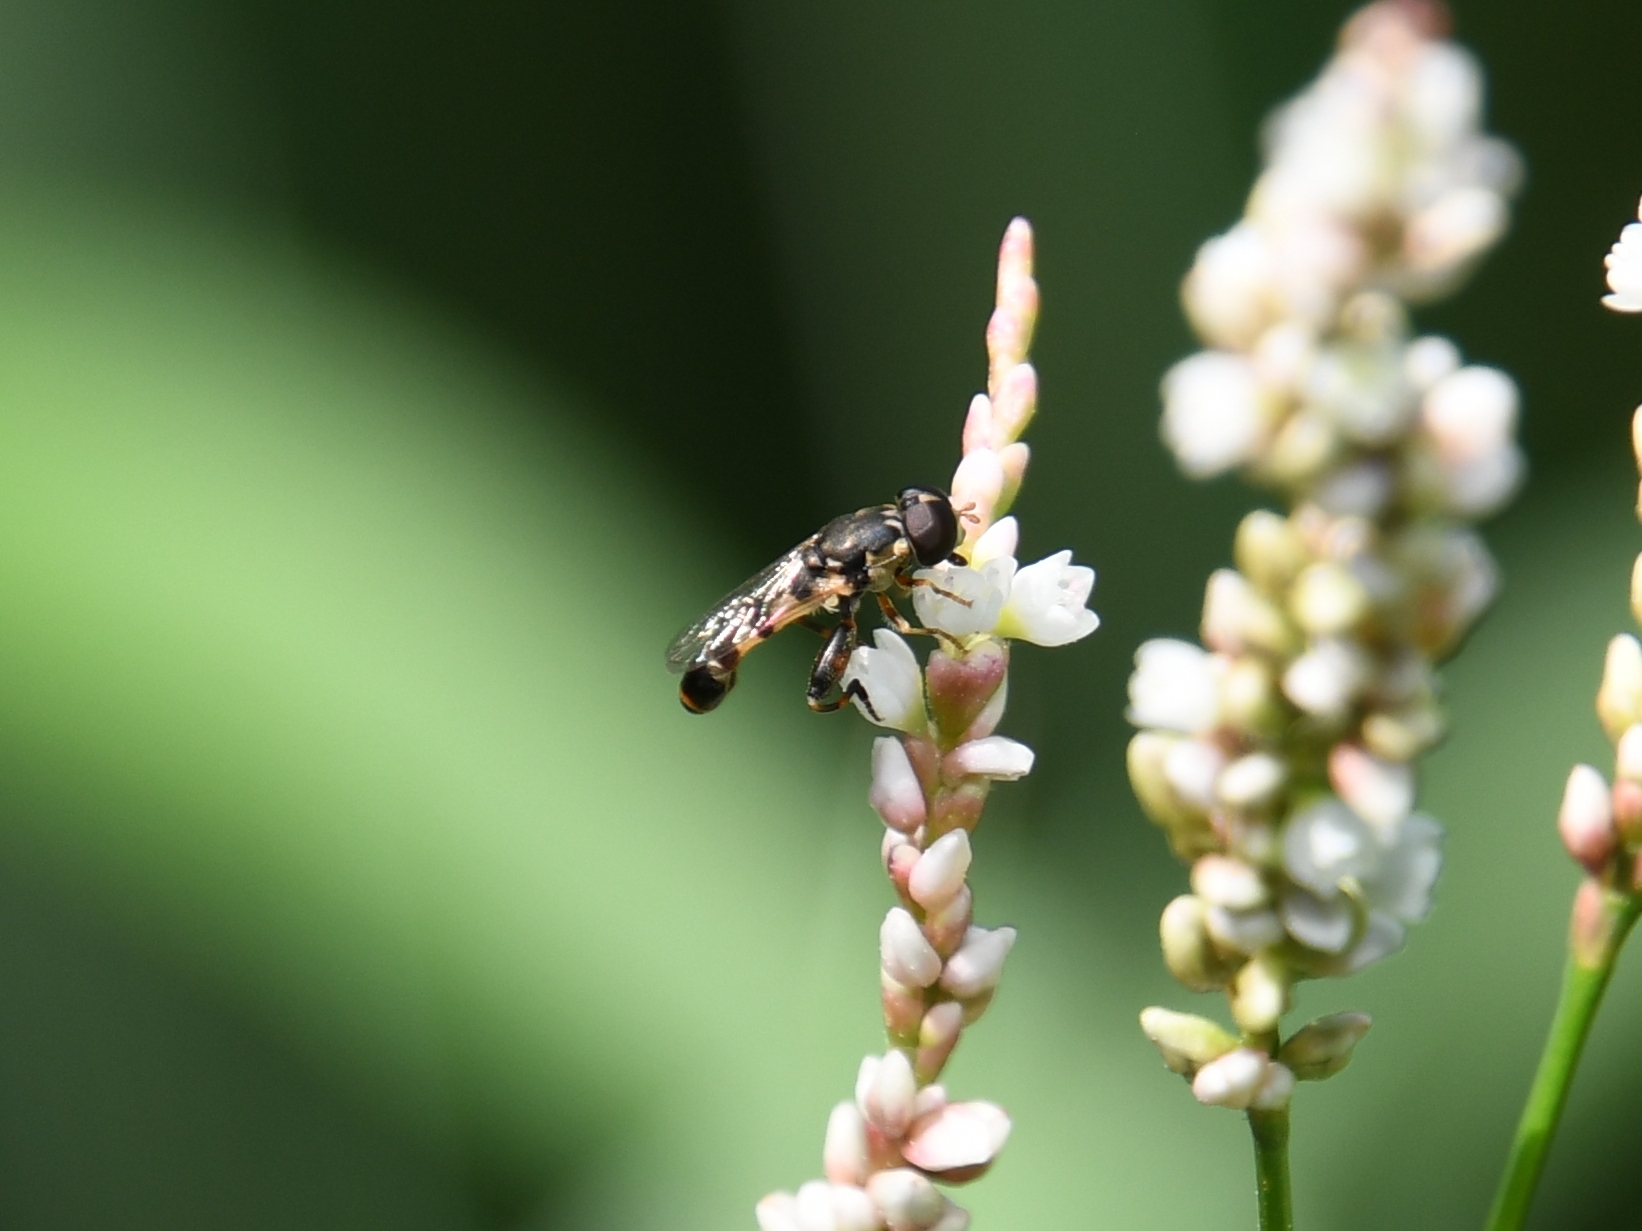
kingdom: Animalia
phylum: Arthropoda
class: Insecta
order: Diptera
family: Syrphidae
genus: Syritta
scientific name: Syritta pipiens
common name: Hover fly
